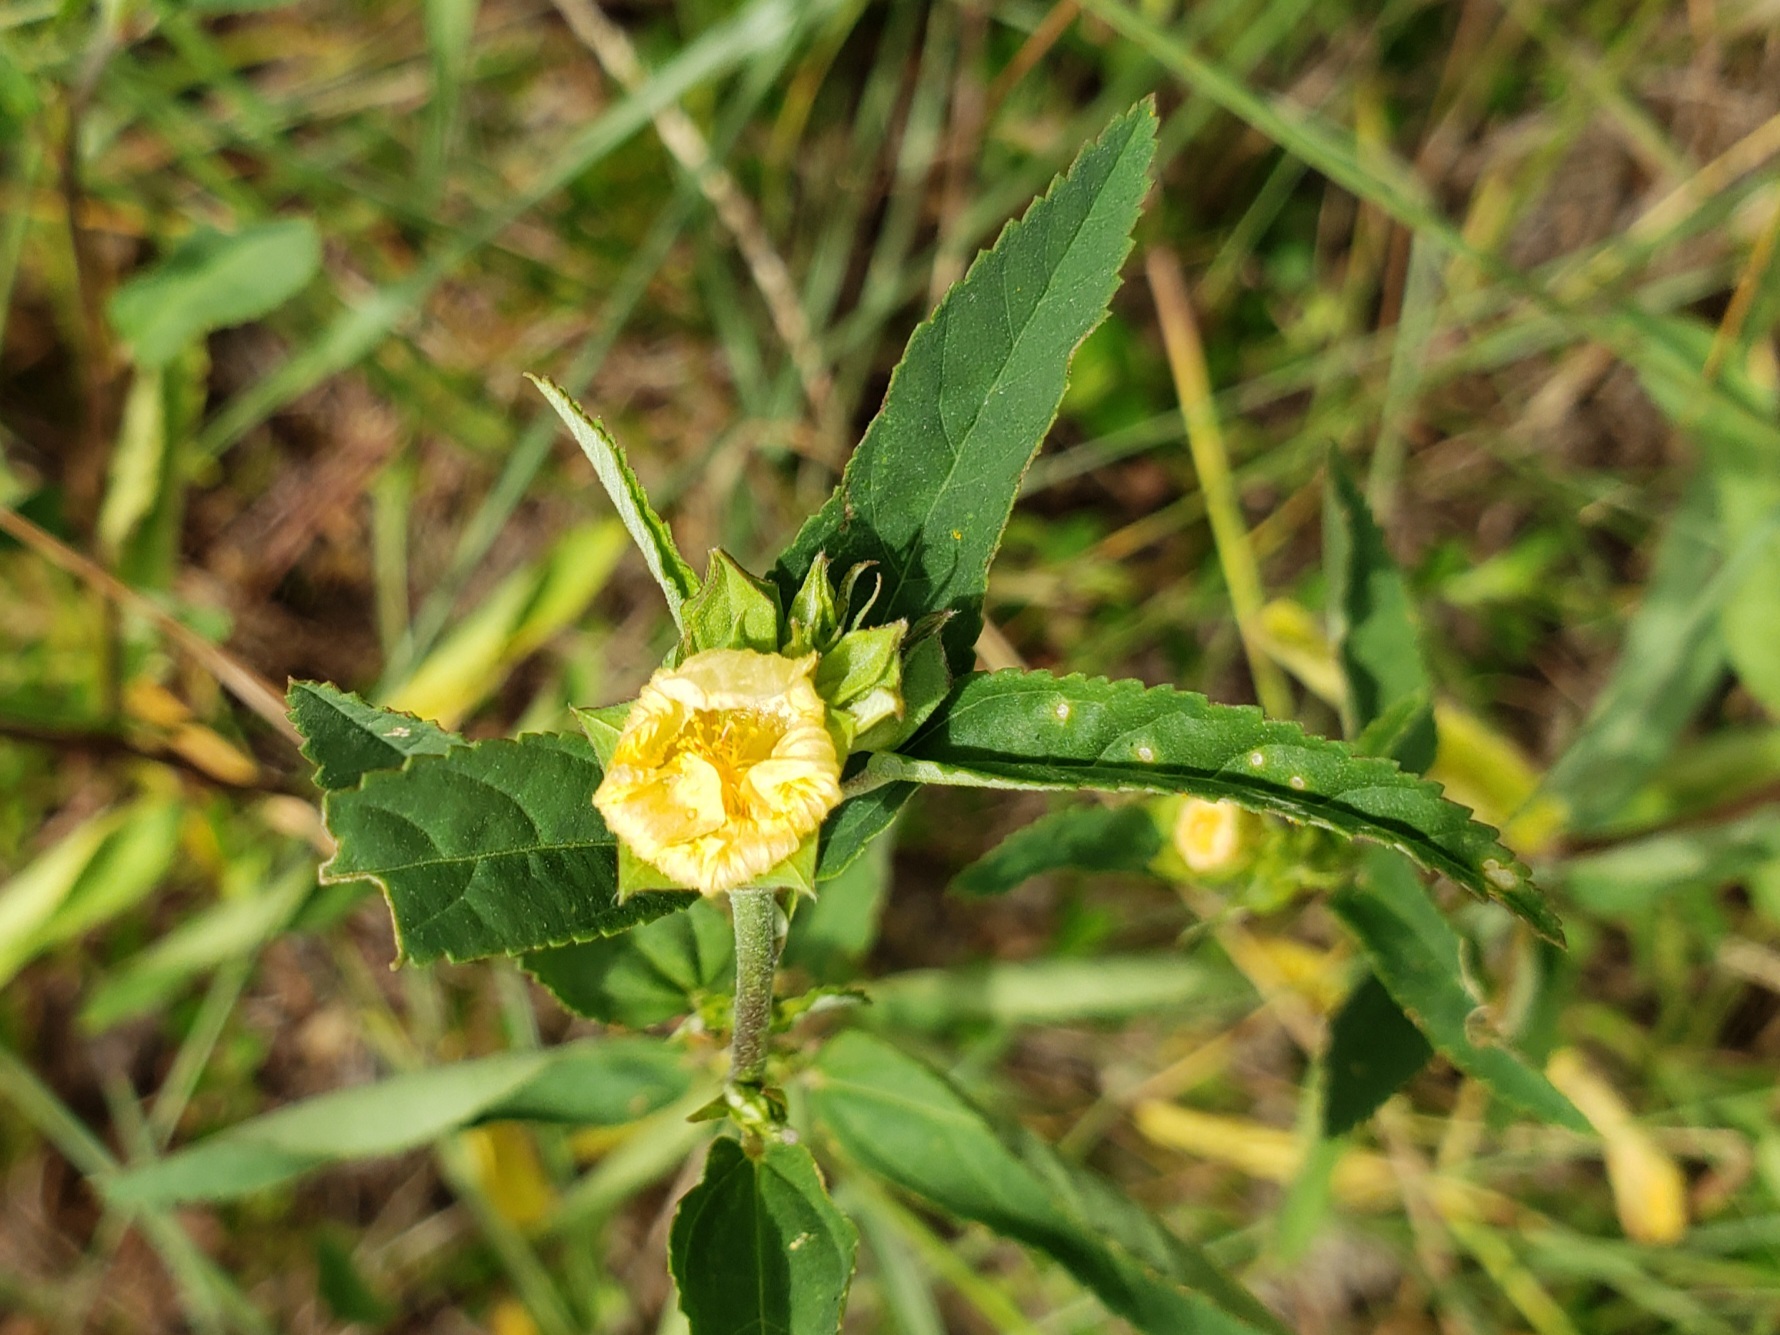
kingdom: Plantae
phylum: Tracheophyta
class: Magnoliopsida
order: Malvales
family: Malvaceae
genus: Sida
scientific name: Sida ulmifolia
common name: Broom weed
